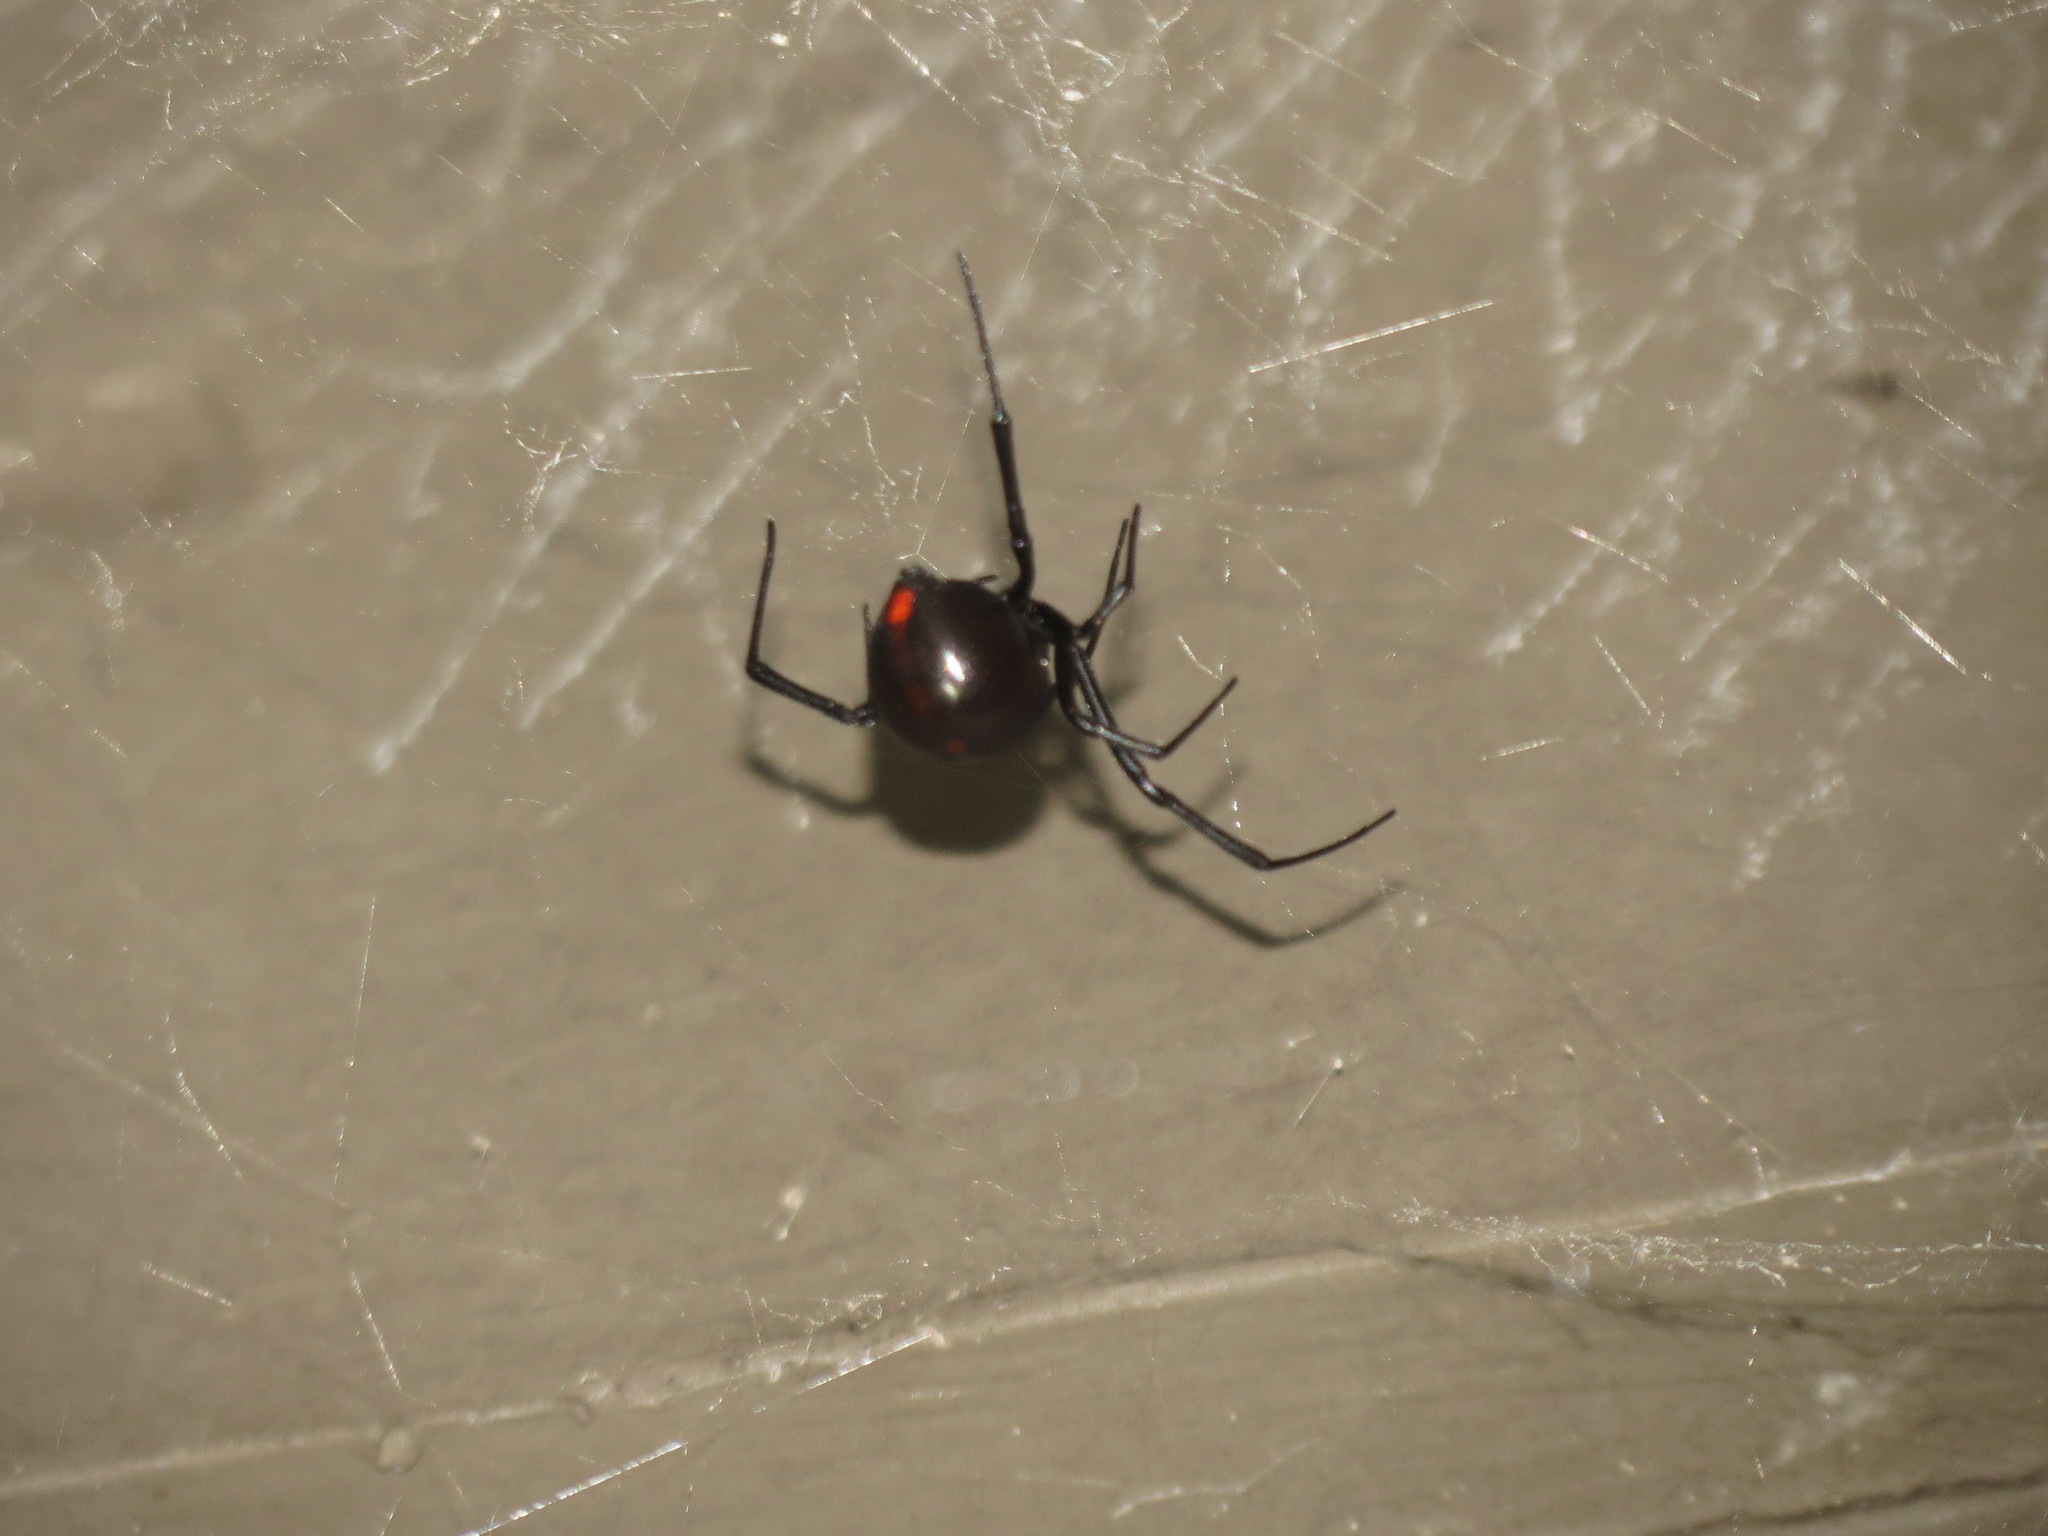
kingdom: Animalia
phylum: Arthropoda
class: Arachnida
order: Araneae
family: Theridiidae
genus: Latrodectus
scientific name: Latrodectus mactans
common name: Cobweb spiders
